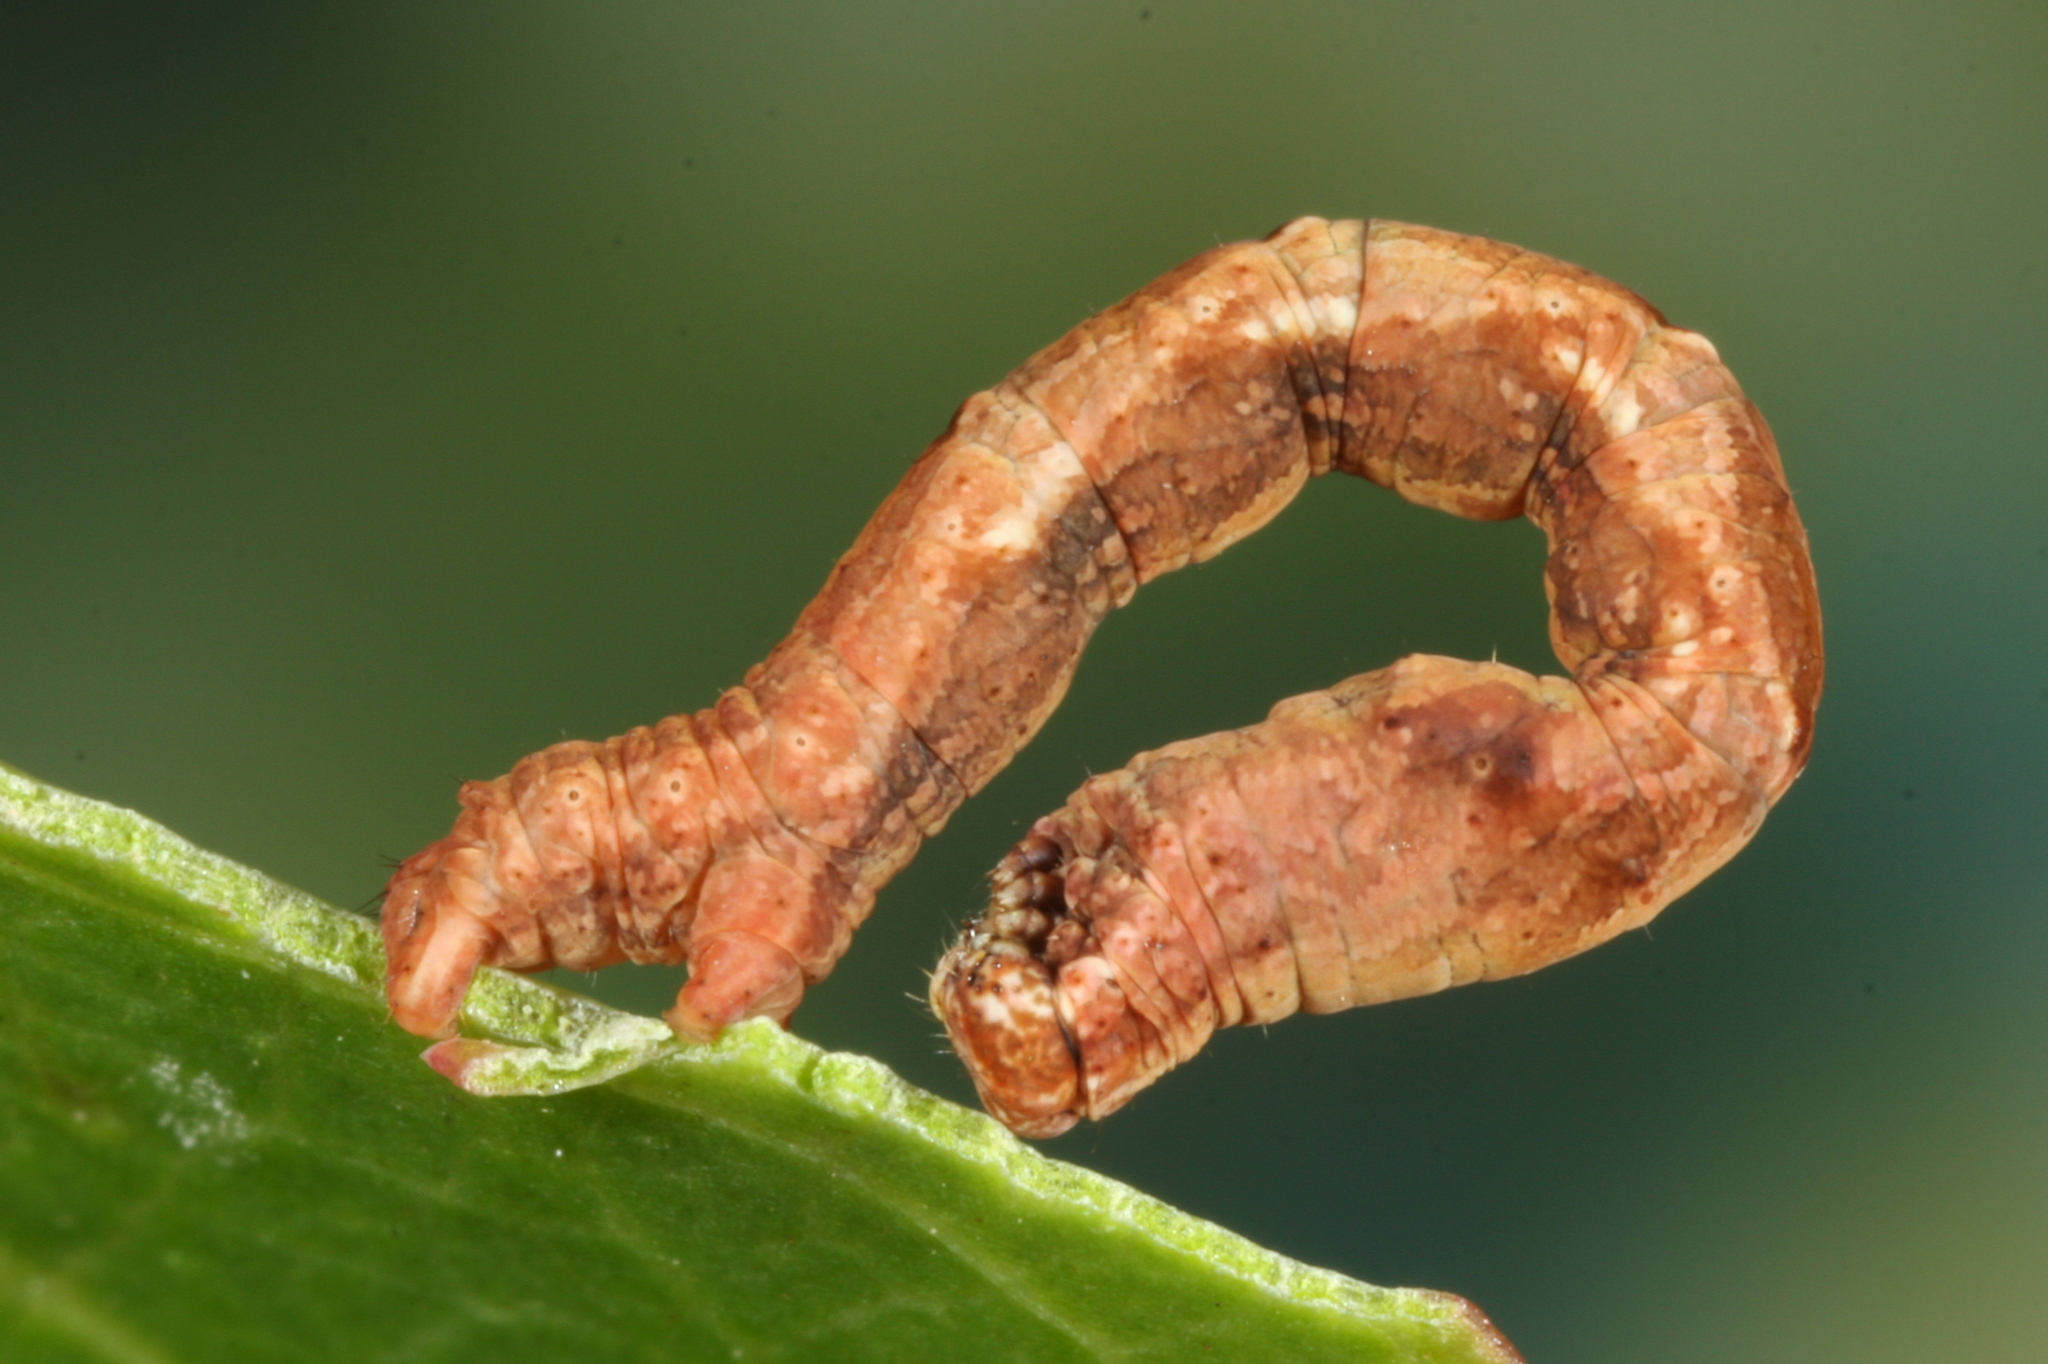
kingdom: Animalia
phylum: Arthropoda
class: Insecta
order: Lepidoptera
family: Geometridae
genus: Timandra
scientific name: Timandra comae
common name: Blood-vein
